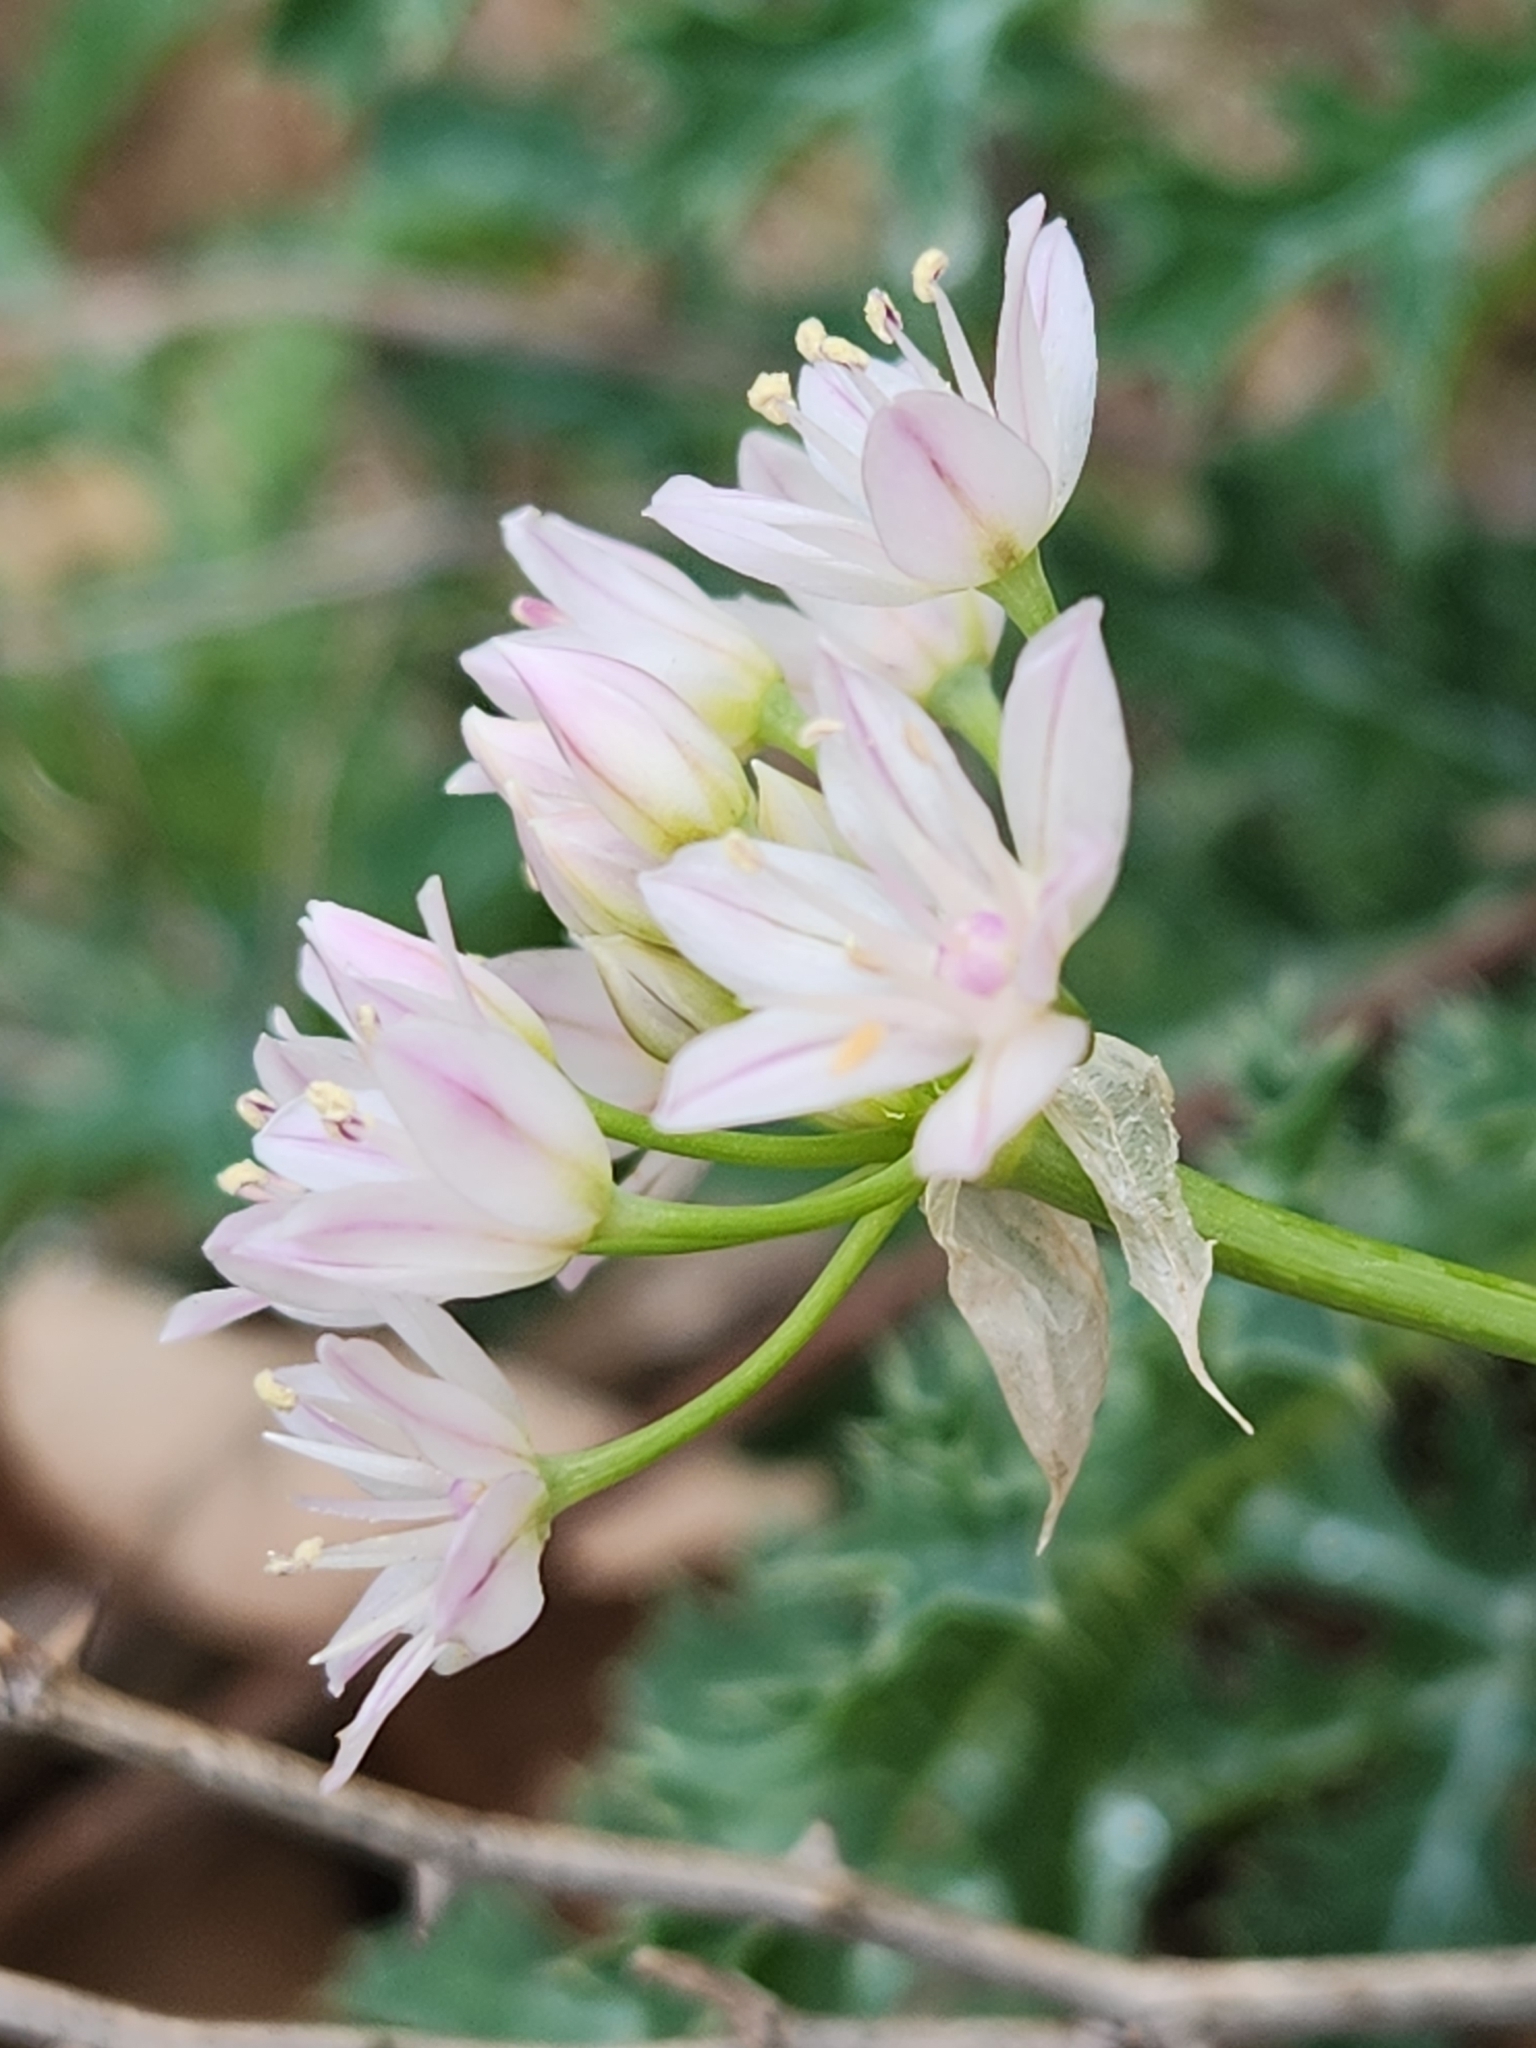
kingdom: Plantae
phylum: Tracheophyta
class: Liliopsida
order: Asparagales
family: Amaryllidaceae
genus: Allium
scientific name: Allium drummondii
